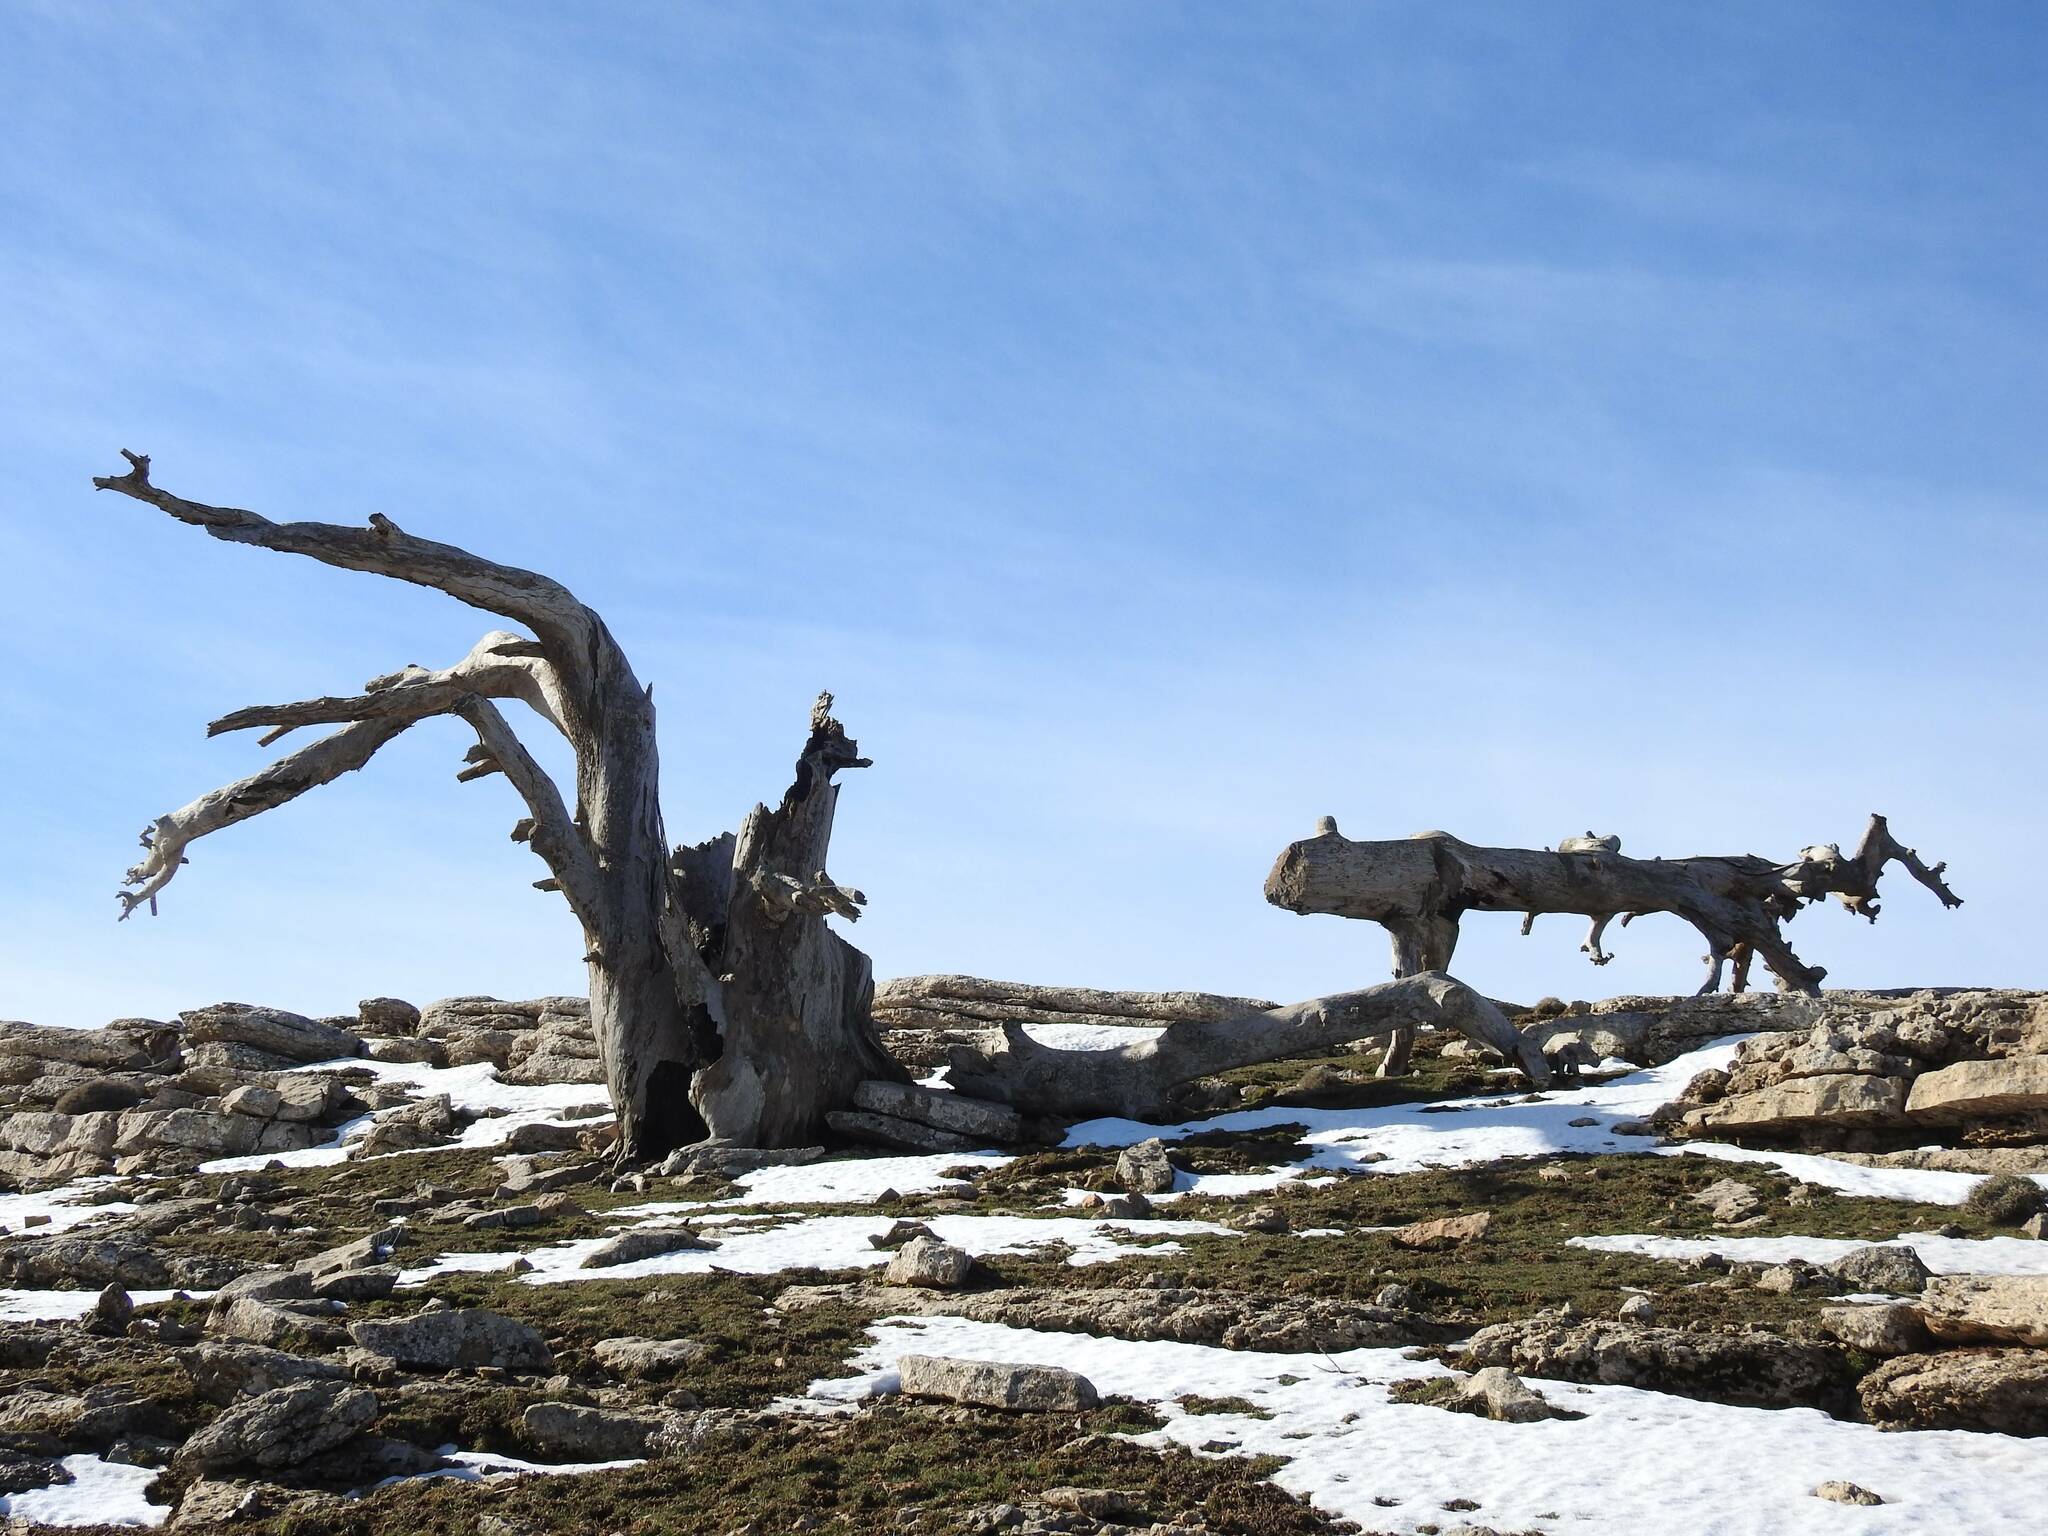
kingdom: Plantae
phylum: Tracheophyta
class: Pinopsida
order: Pinales
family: Pinaceae
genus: Cedrus
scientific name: Cedrus atlantica
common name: Atlas cedar
